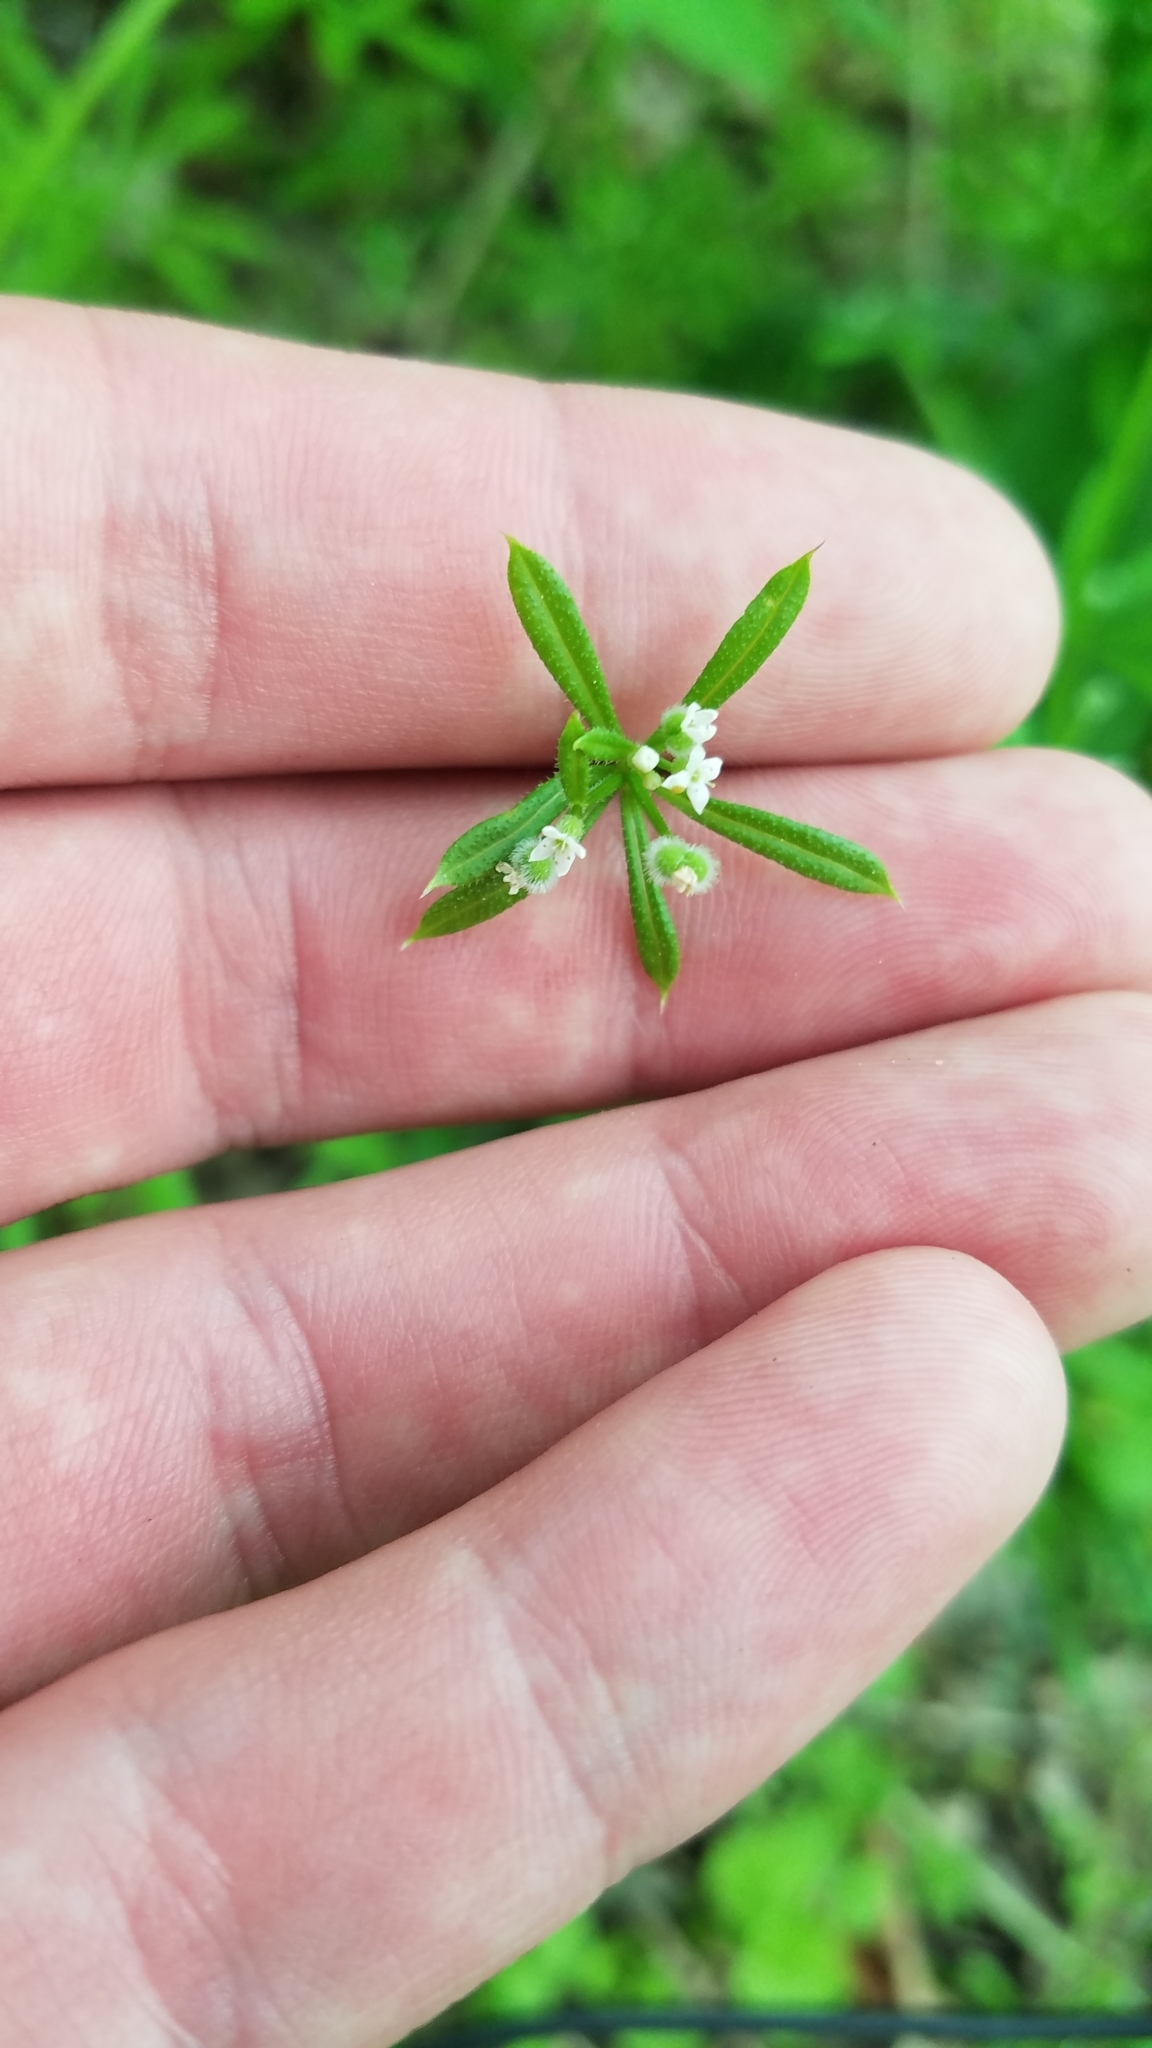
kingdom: Plantae
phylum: Tracheophyta
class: Magnoliopsida
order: Gentianales
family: Rubiaceae
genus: Galium
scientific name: Galium aparine
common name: Cleavers
